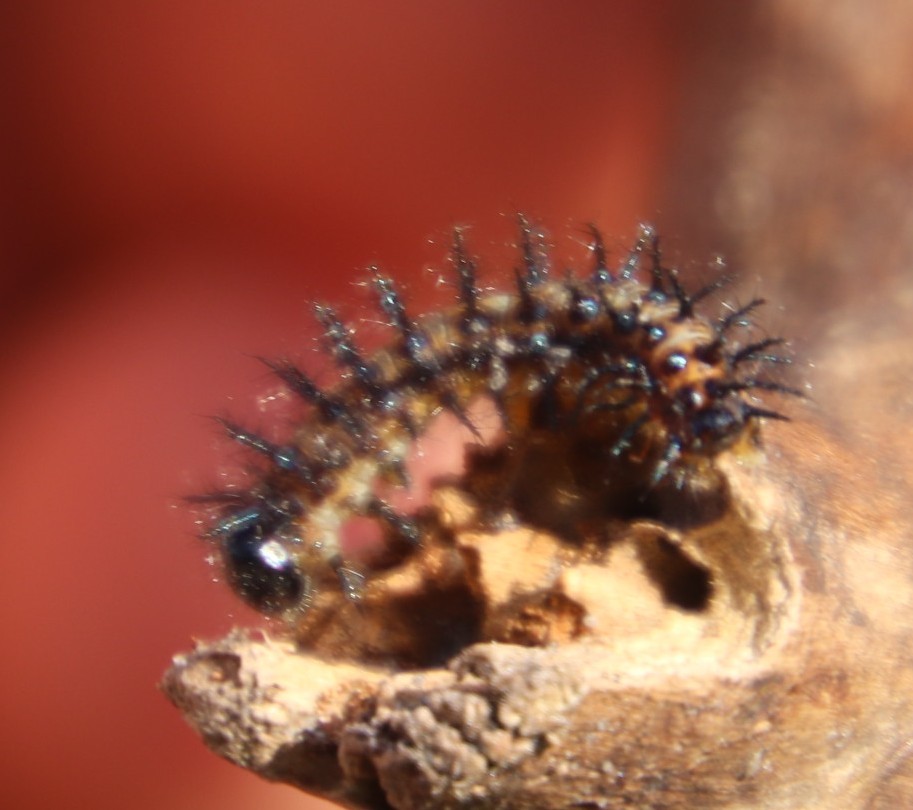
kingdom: Animalia
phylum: Arthropoda
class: Insecta
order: Lepidoptera
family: Nymphalidae
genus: Acraea
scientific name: Acraea horta
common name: Garden acraea
